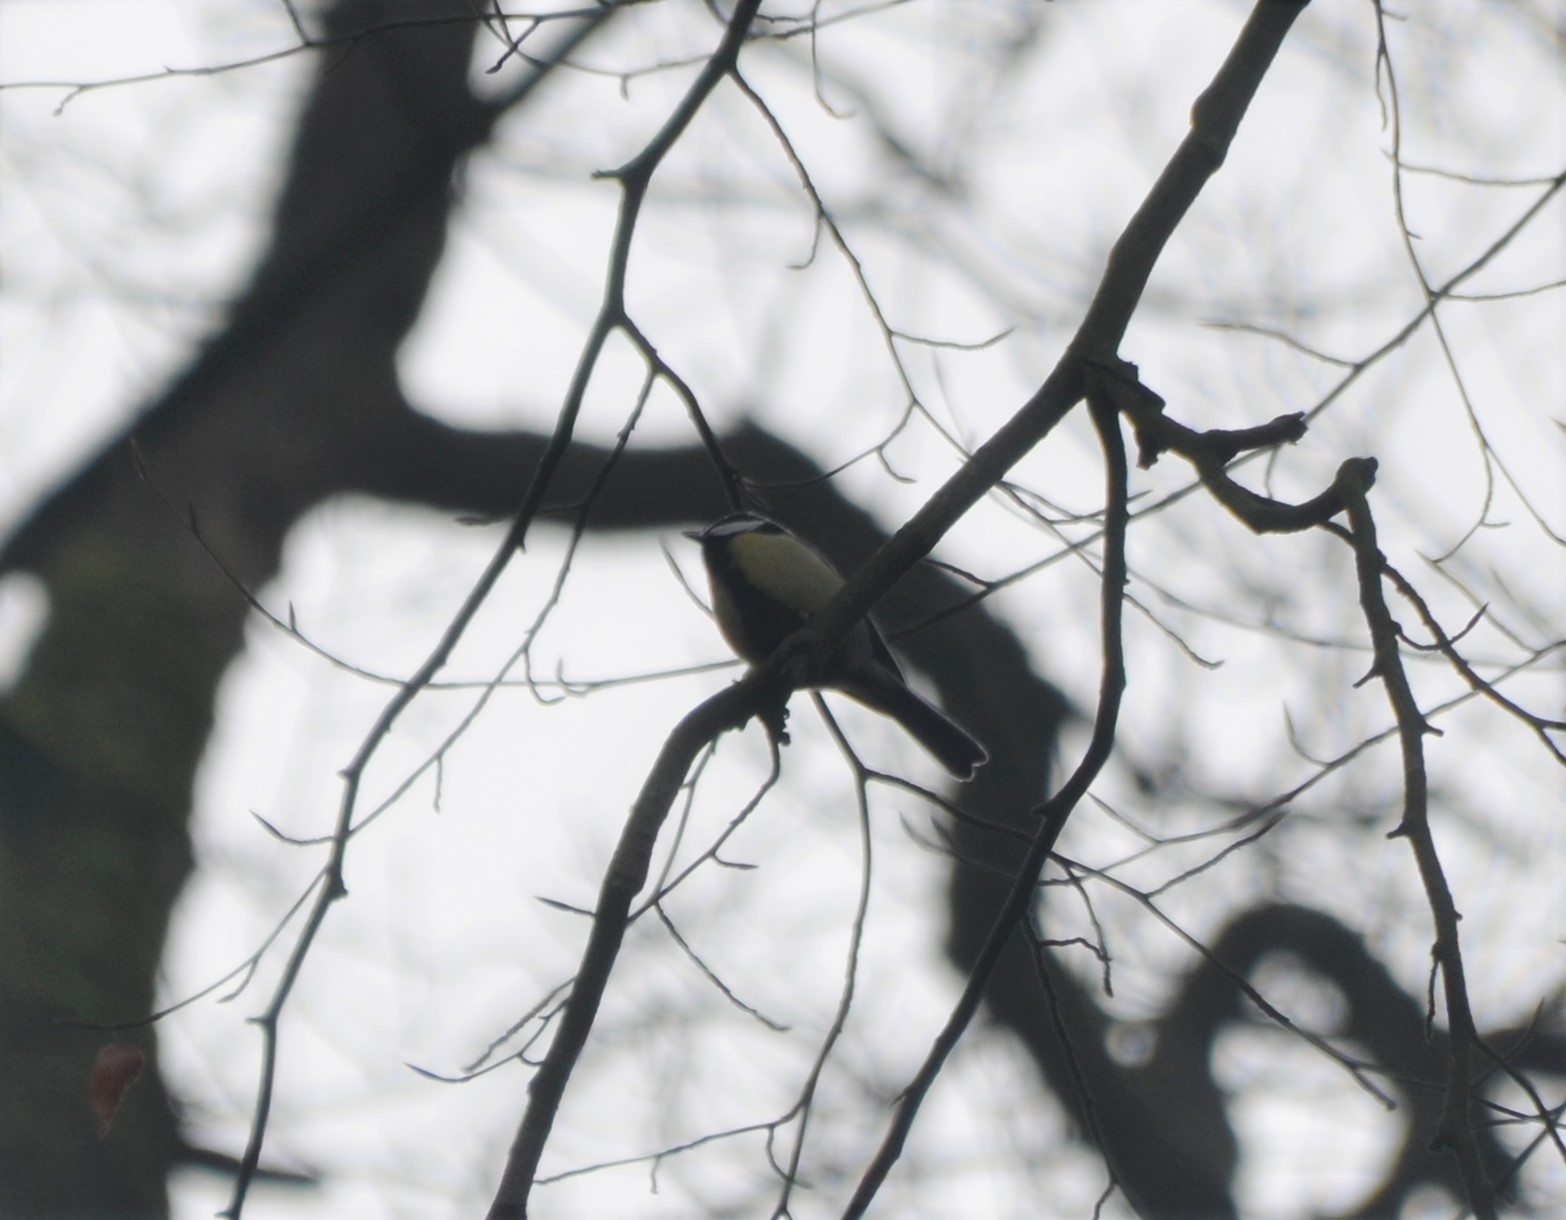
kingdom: Animalia
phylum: Chordata
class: Aves
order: Passeriformes
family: Paridae
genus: Parus
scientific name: Parus major
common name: Great tit
